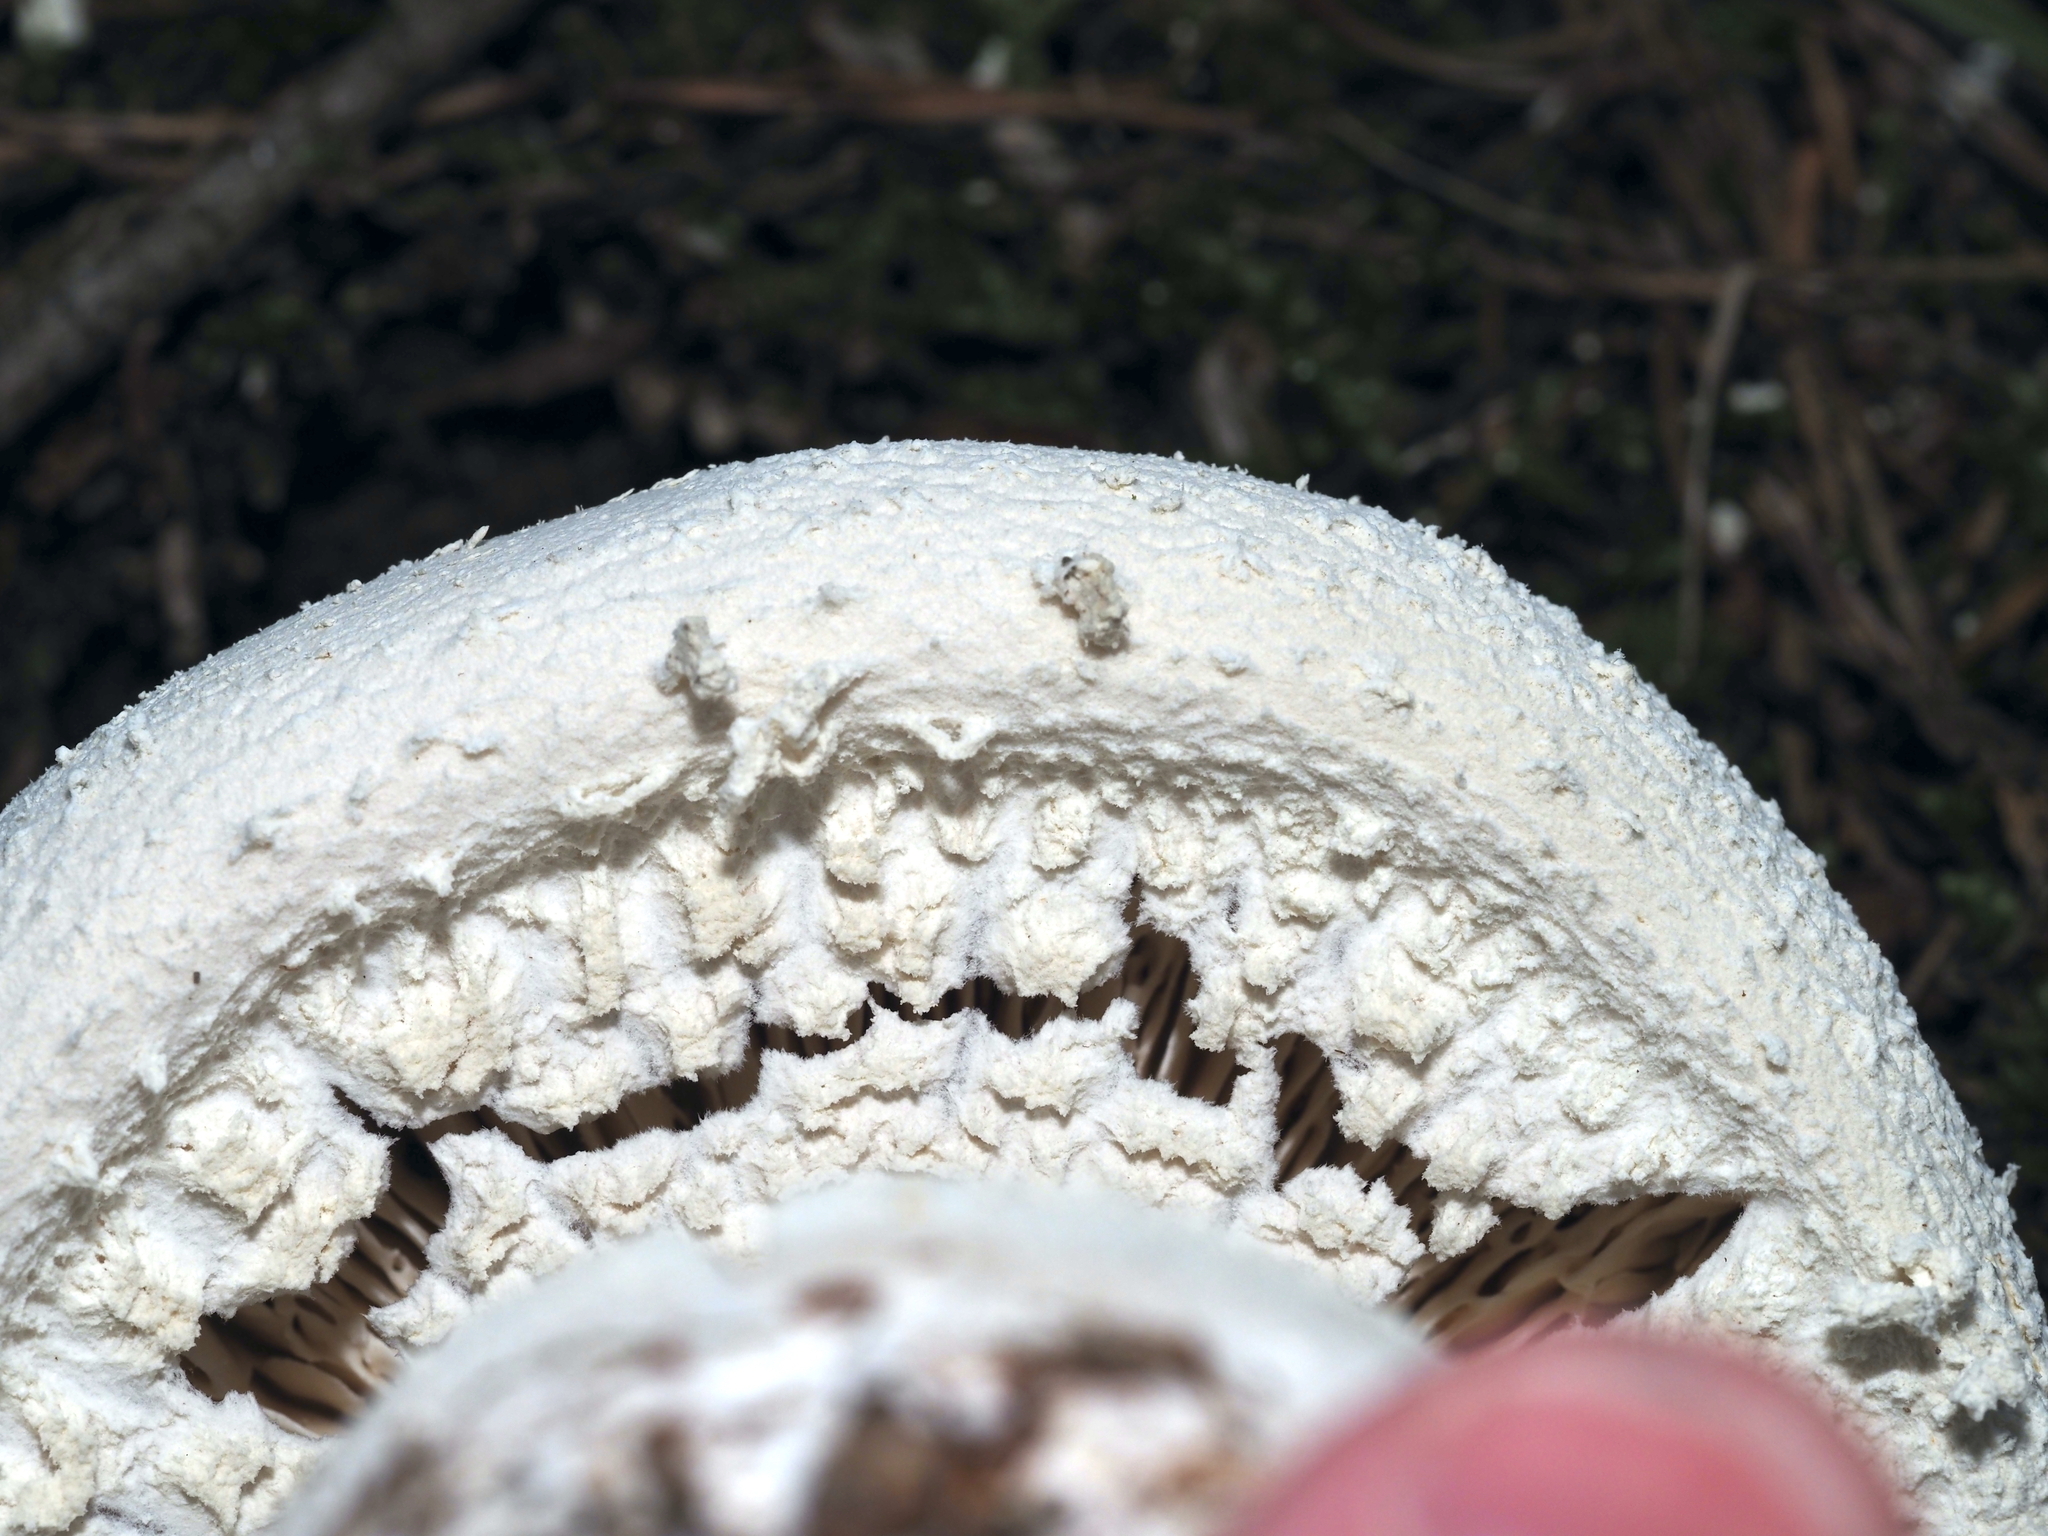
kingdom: Fungi
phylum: Basidiomycota
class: Agaricomycetes
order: Agaricales
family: Amanitaceae
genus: Amanita
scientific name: Amanita polypyramis
